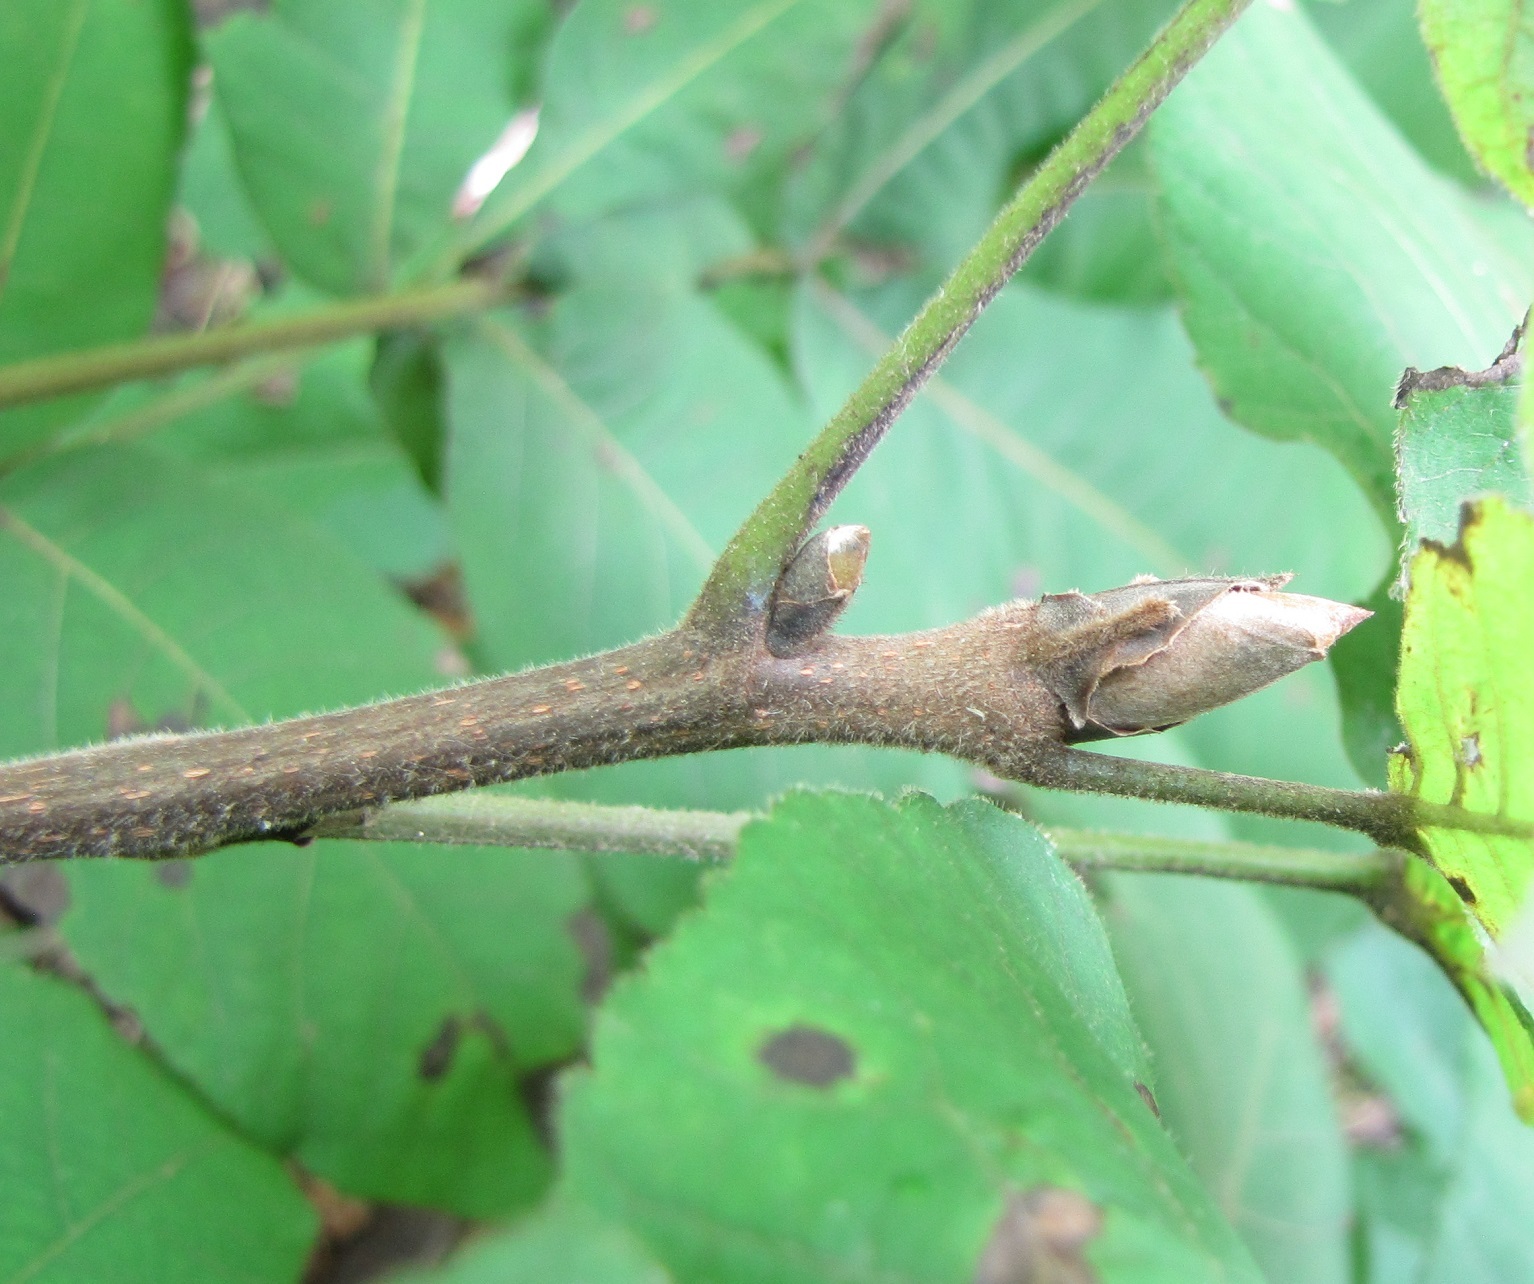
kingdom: Plantae
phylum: Tracheophyta
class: Magnoliopsida
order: Fagales
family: Juglandaceae
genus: Carya
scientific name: Carya alba
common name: Mockernut hickory
